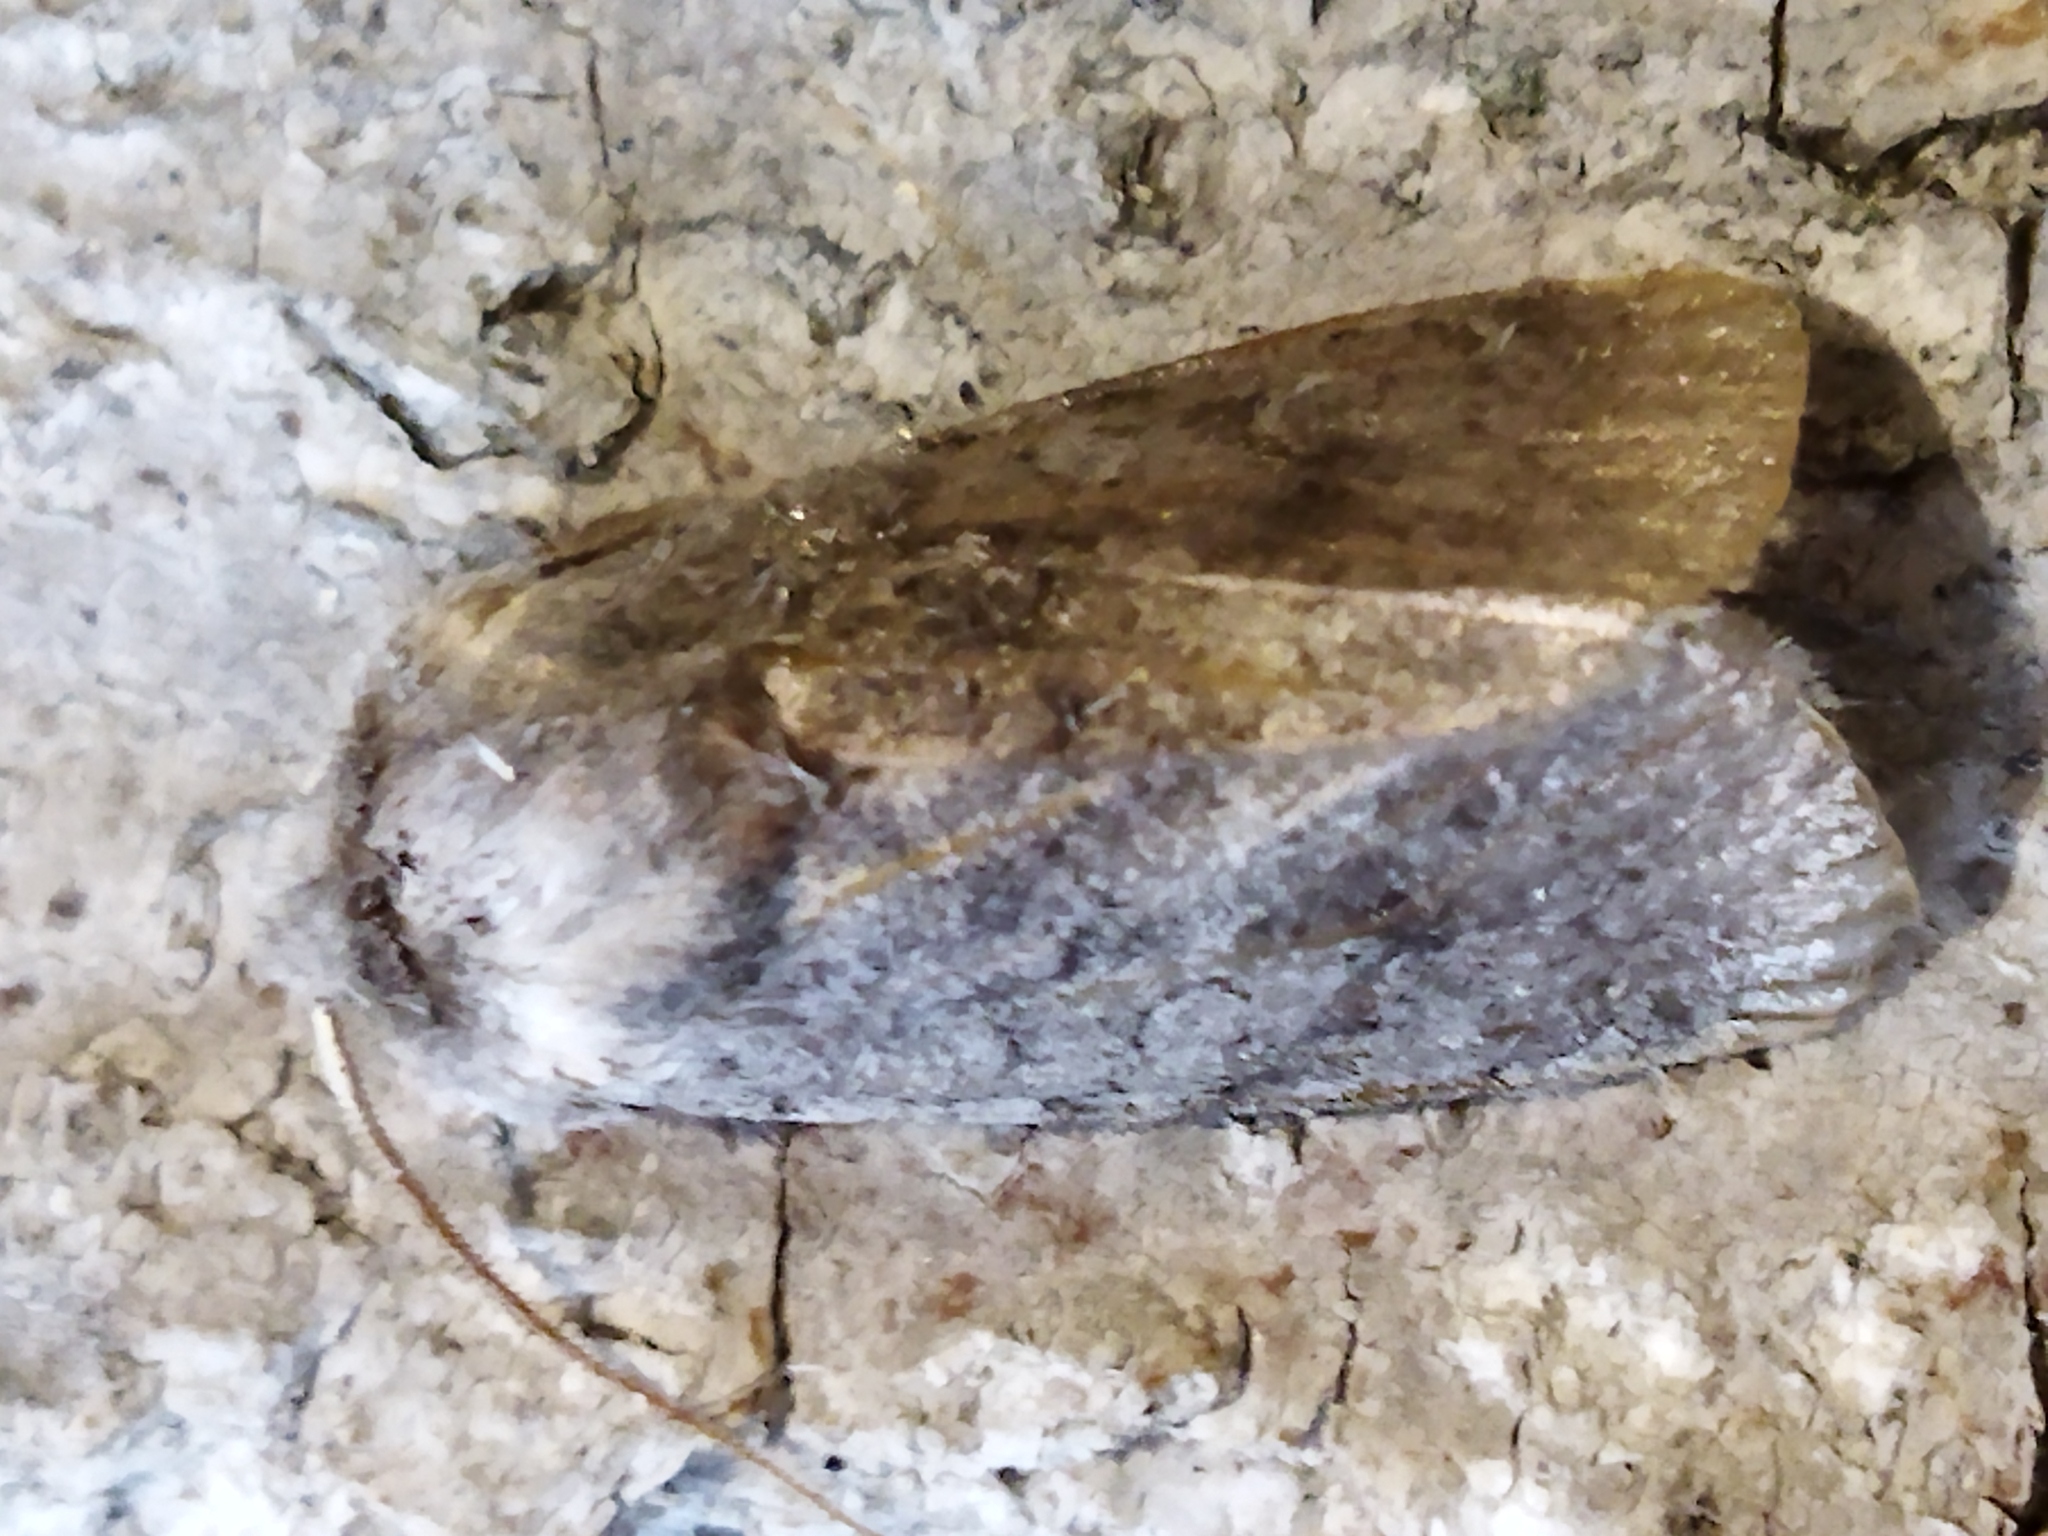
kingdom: Animalia
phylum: Arthropoda
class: Insecta
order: Lepidoptera
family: Noctuidae
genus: Orthosia
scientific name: Orthosia
